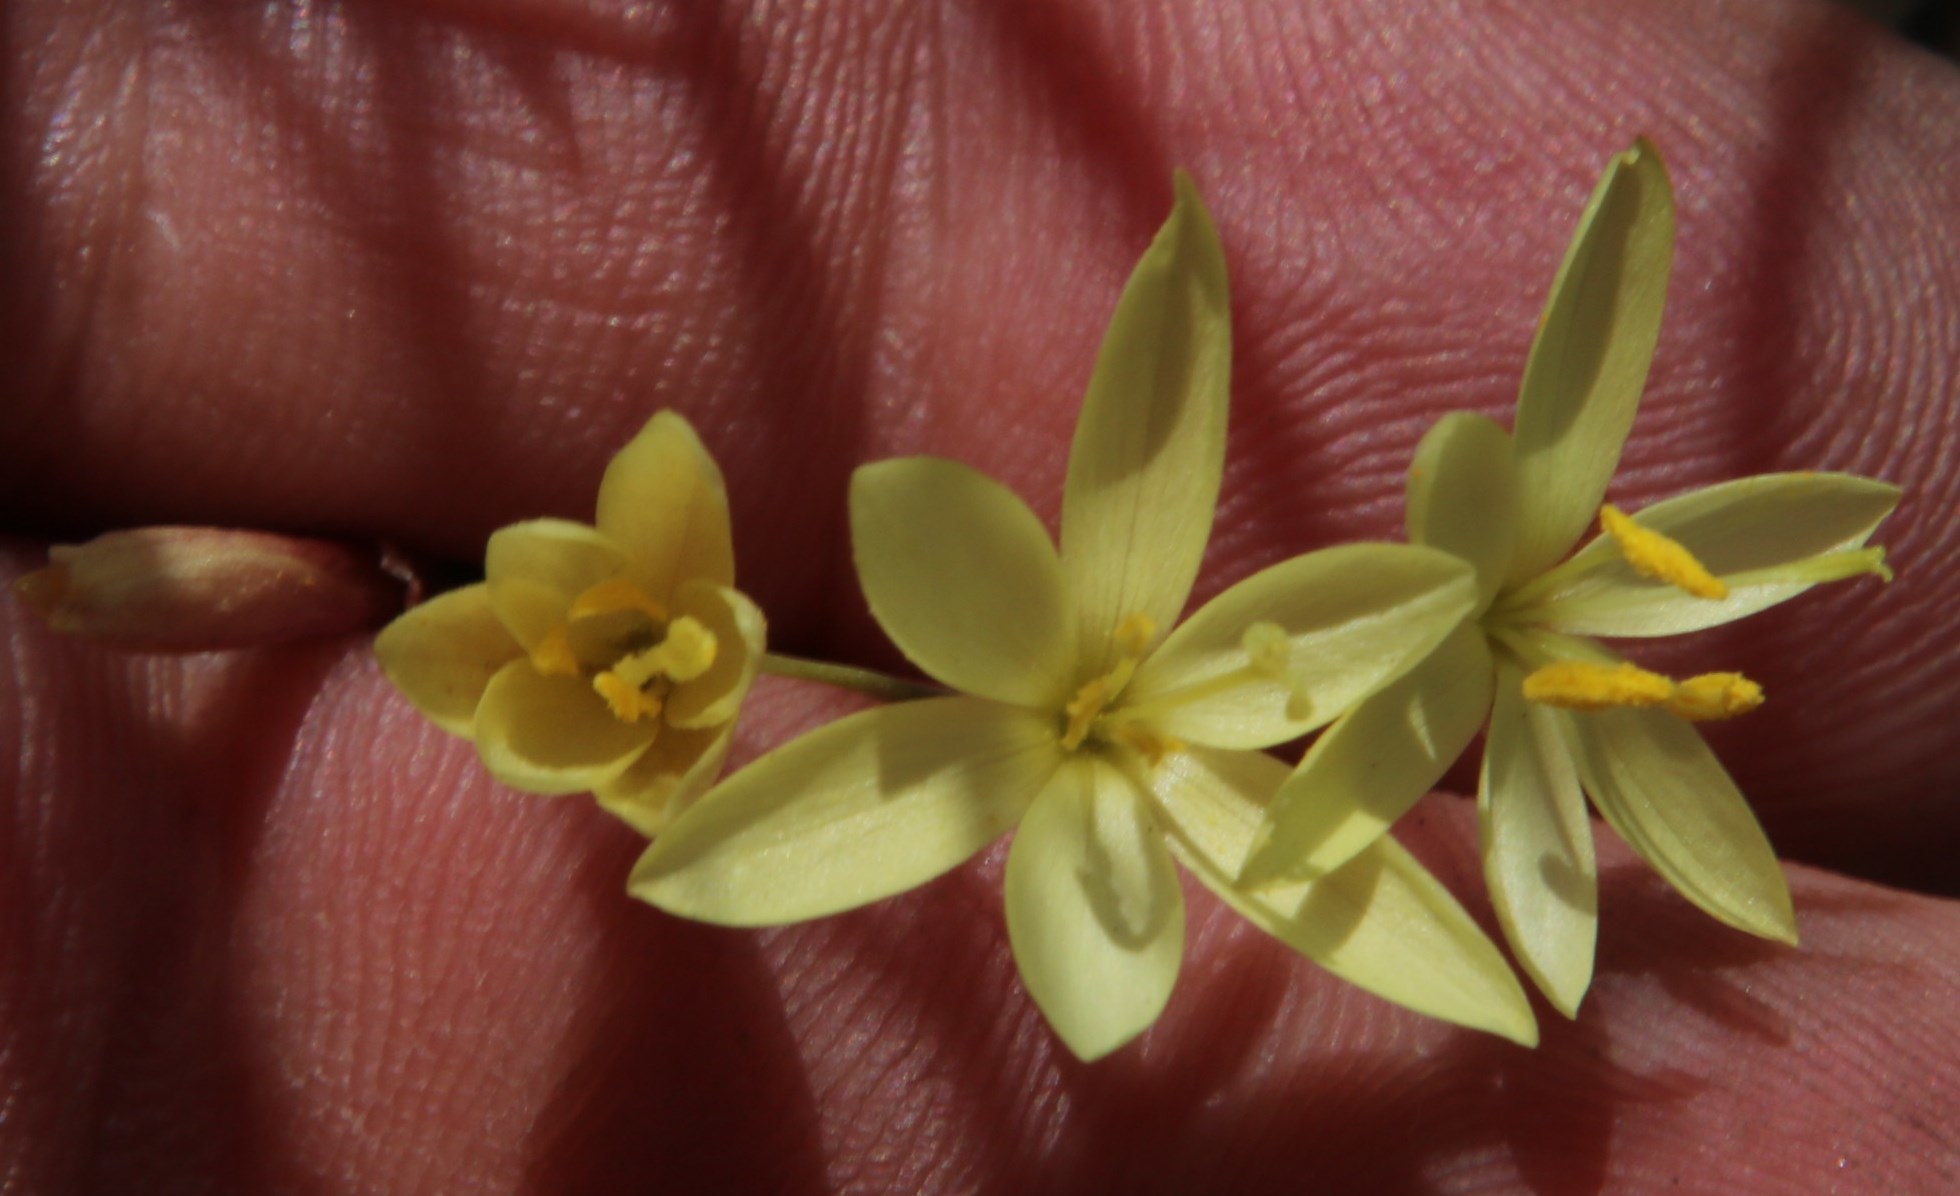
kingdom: Plantae
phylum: Tracheophyta
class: Liliopsida
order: Asparagales
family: Iridaceae
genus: Geissorhiza
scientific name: Geissorhiza juncea
